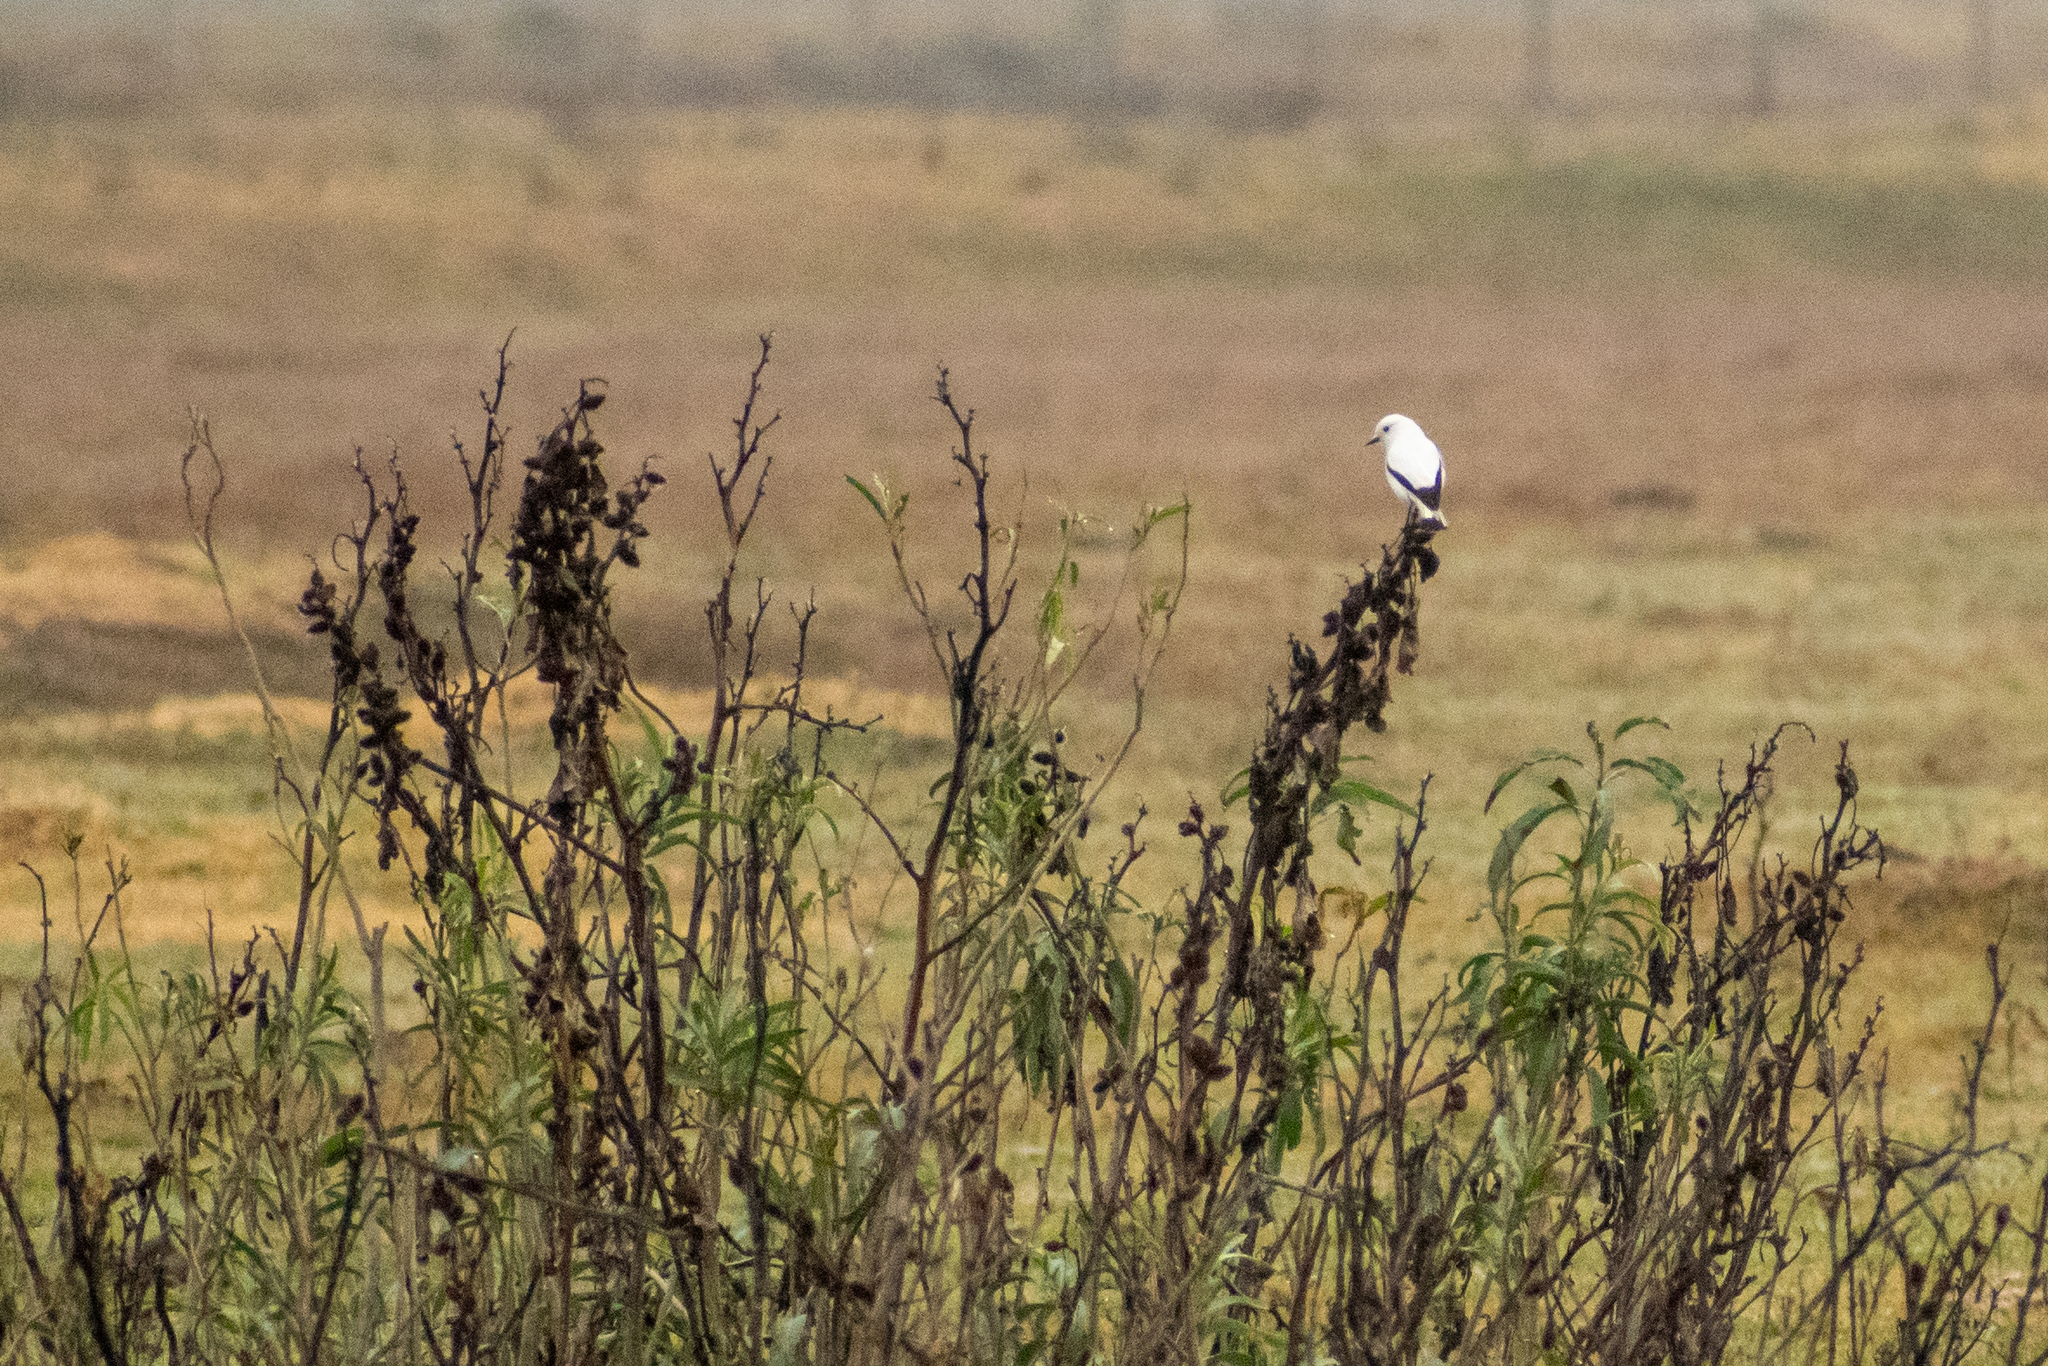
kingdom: Animalia
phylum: Chordata
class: Aves
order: Passeriformes
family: Tyrannidae
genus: Xolmis
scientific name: Xolmis irupero
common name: White monjita
